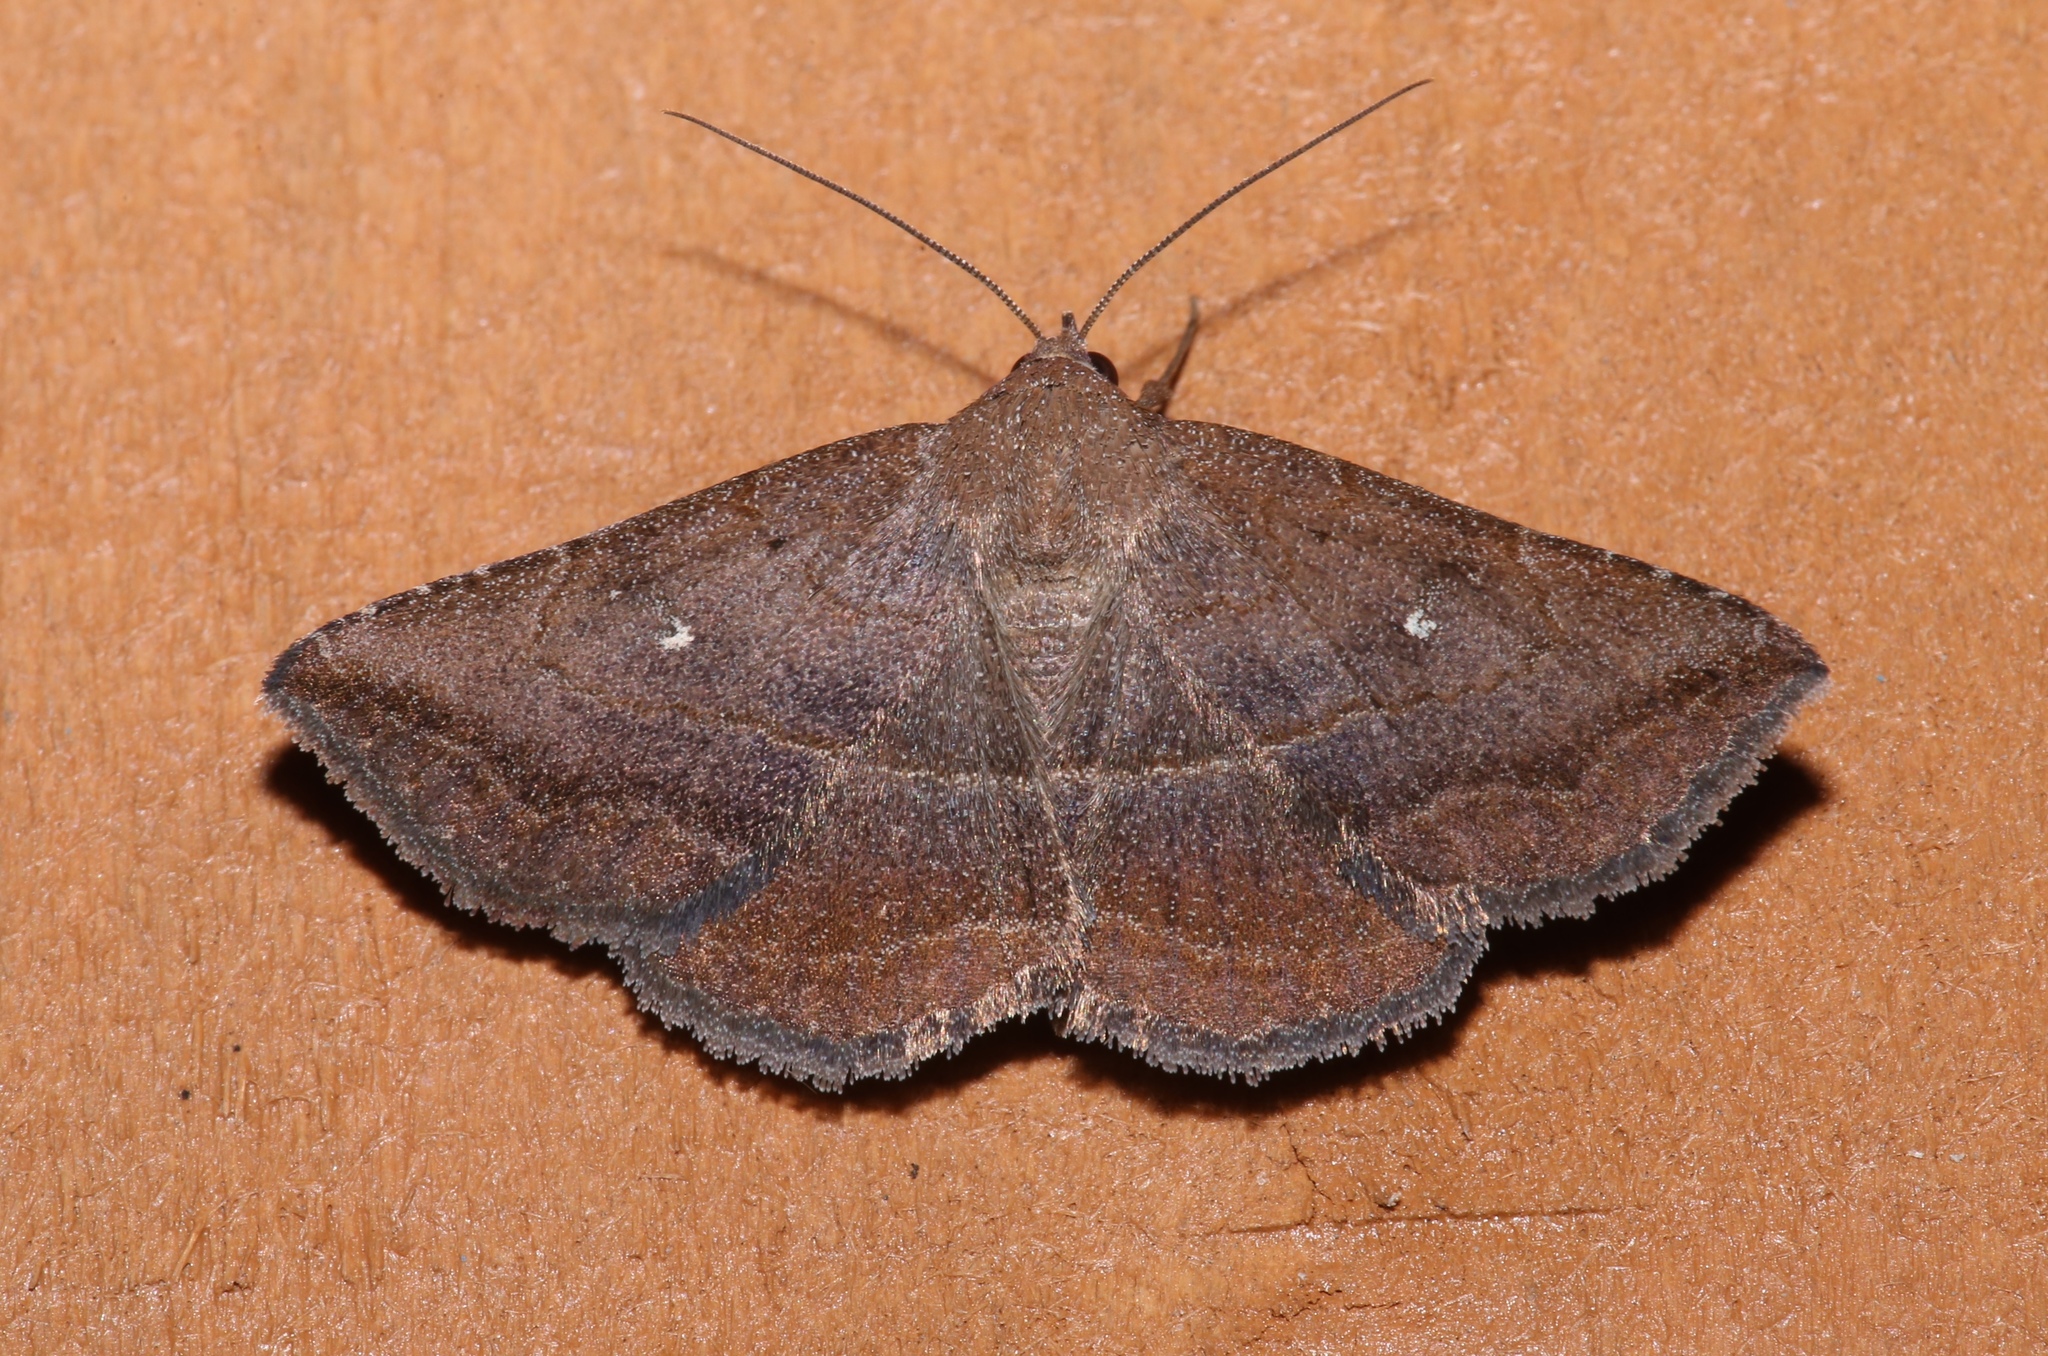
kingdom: Animalia
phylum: Arthropoda
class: Insecta
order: Lepidoptera
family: Erebidae
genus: Lesmone
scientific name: Lesmone detrahens
